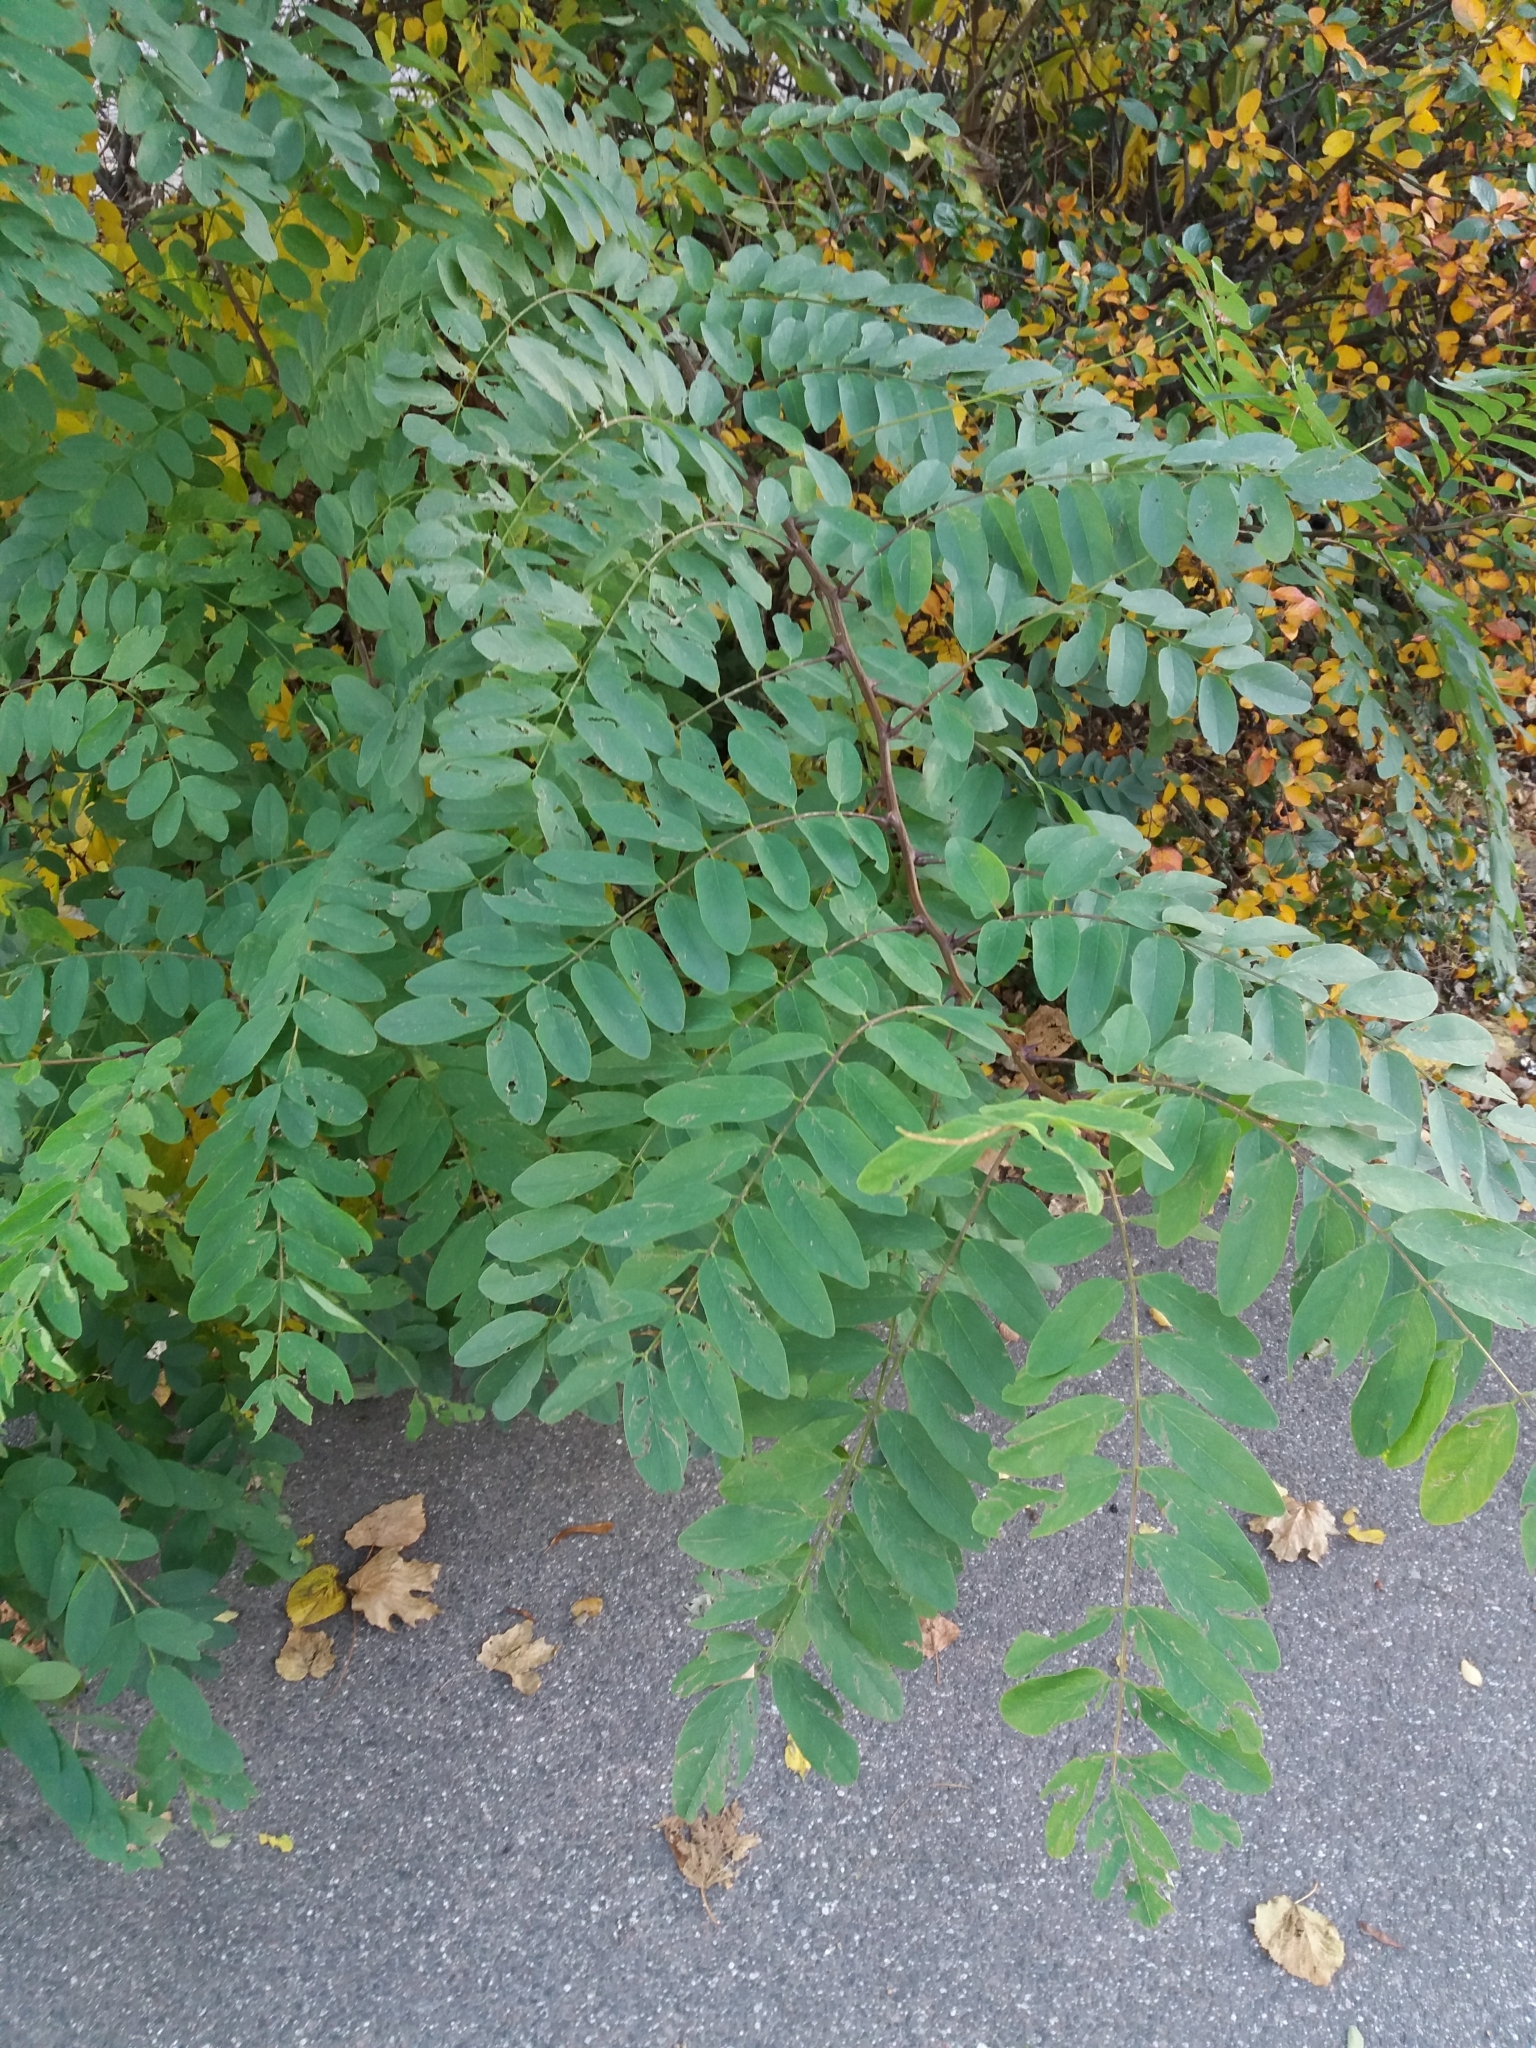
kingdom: Plantae
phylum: Tracheophyta
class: Magnoliopsida
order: Fabales
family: Fabaceae
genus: Robinia
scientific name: Robinia pseudoacacia
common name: Black locust
